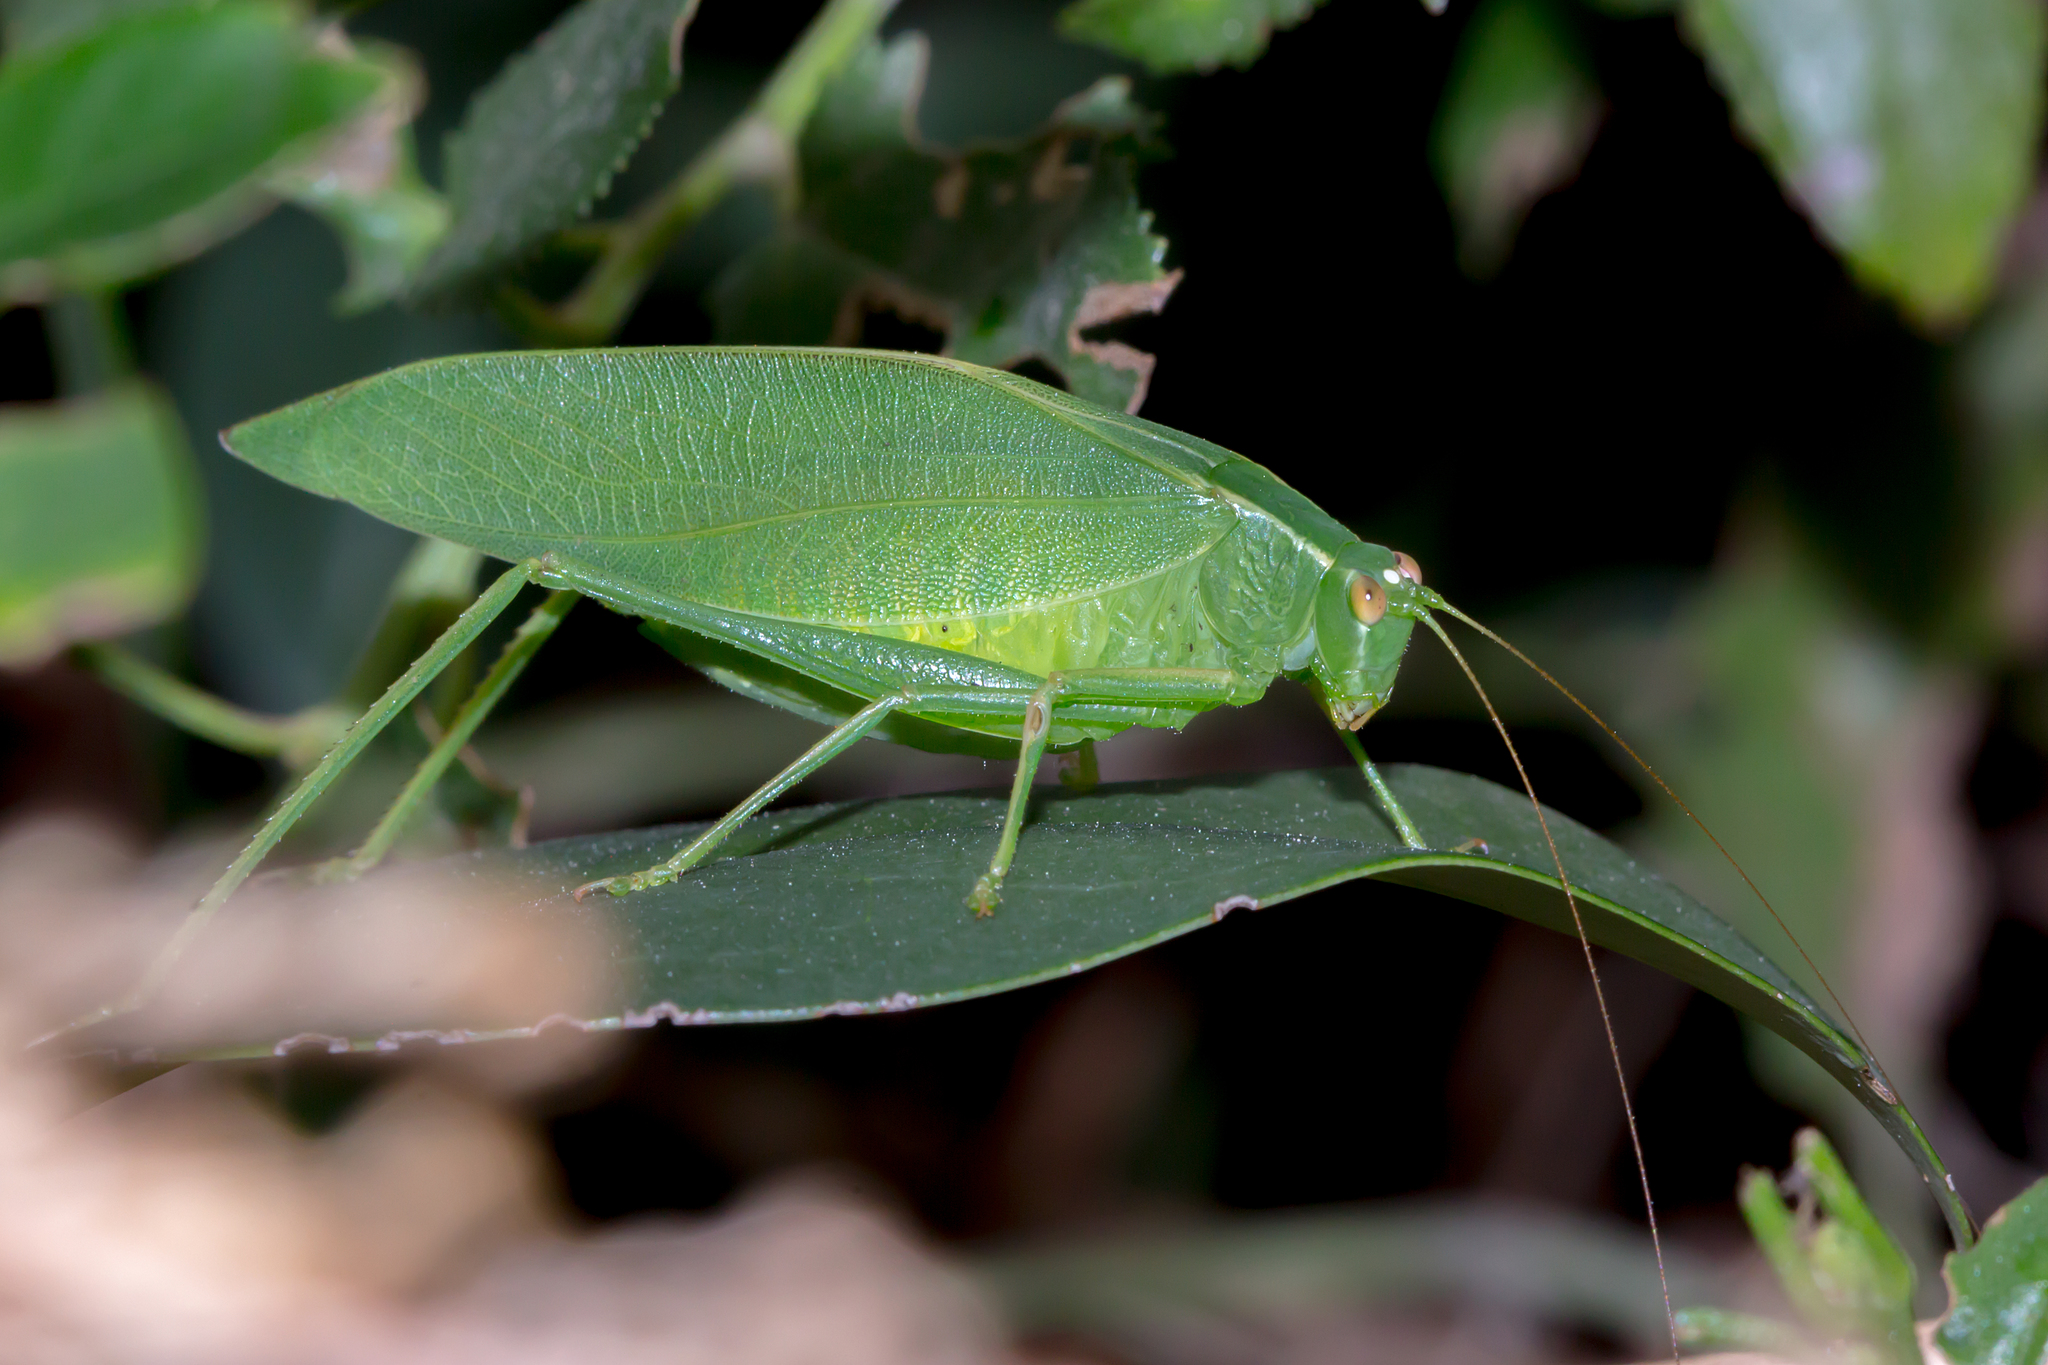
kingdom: Animalia
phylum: Arthropoda
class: Insecta
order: Orthoptera
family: Tettigoniidae
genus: Caedicia
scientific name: Caedicia simplex
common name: Common garden katydid
